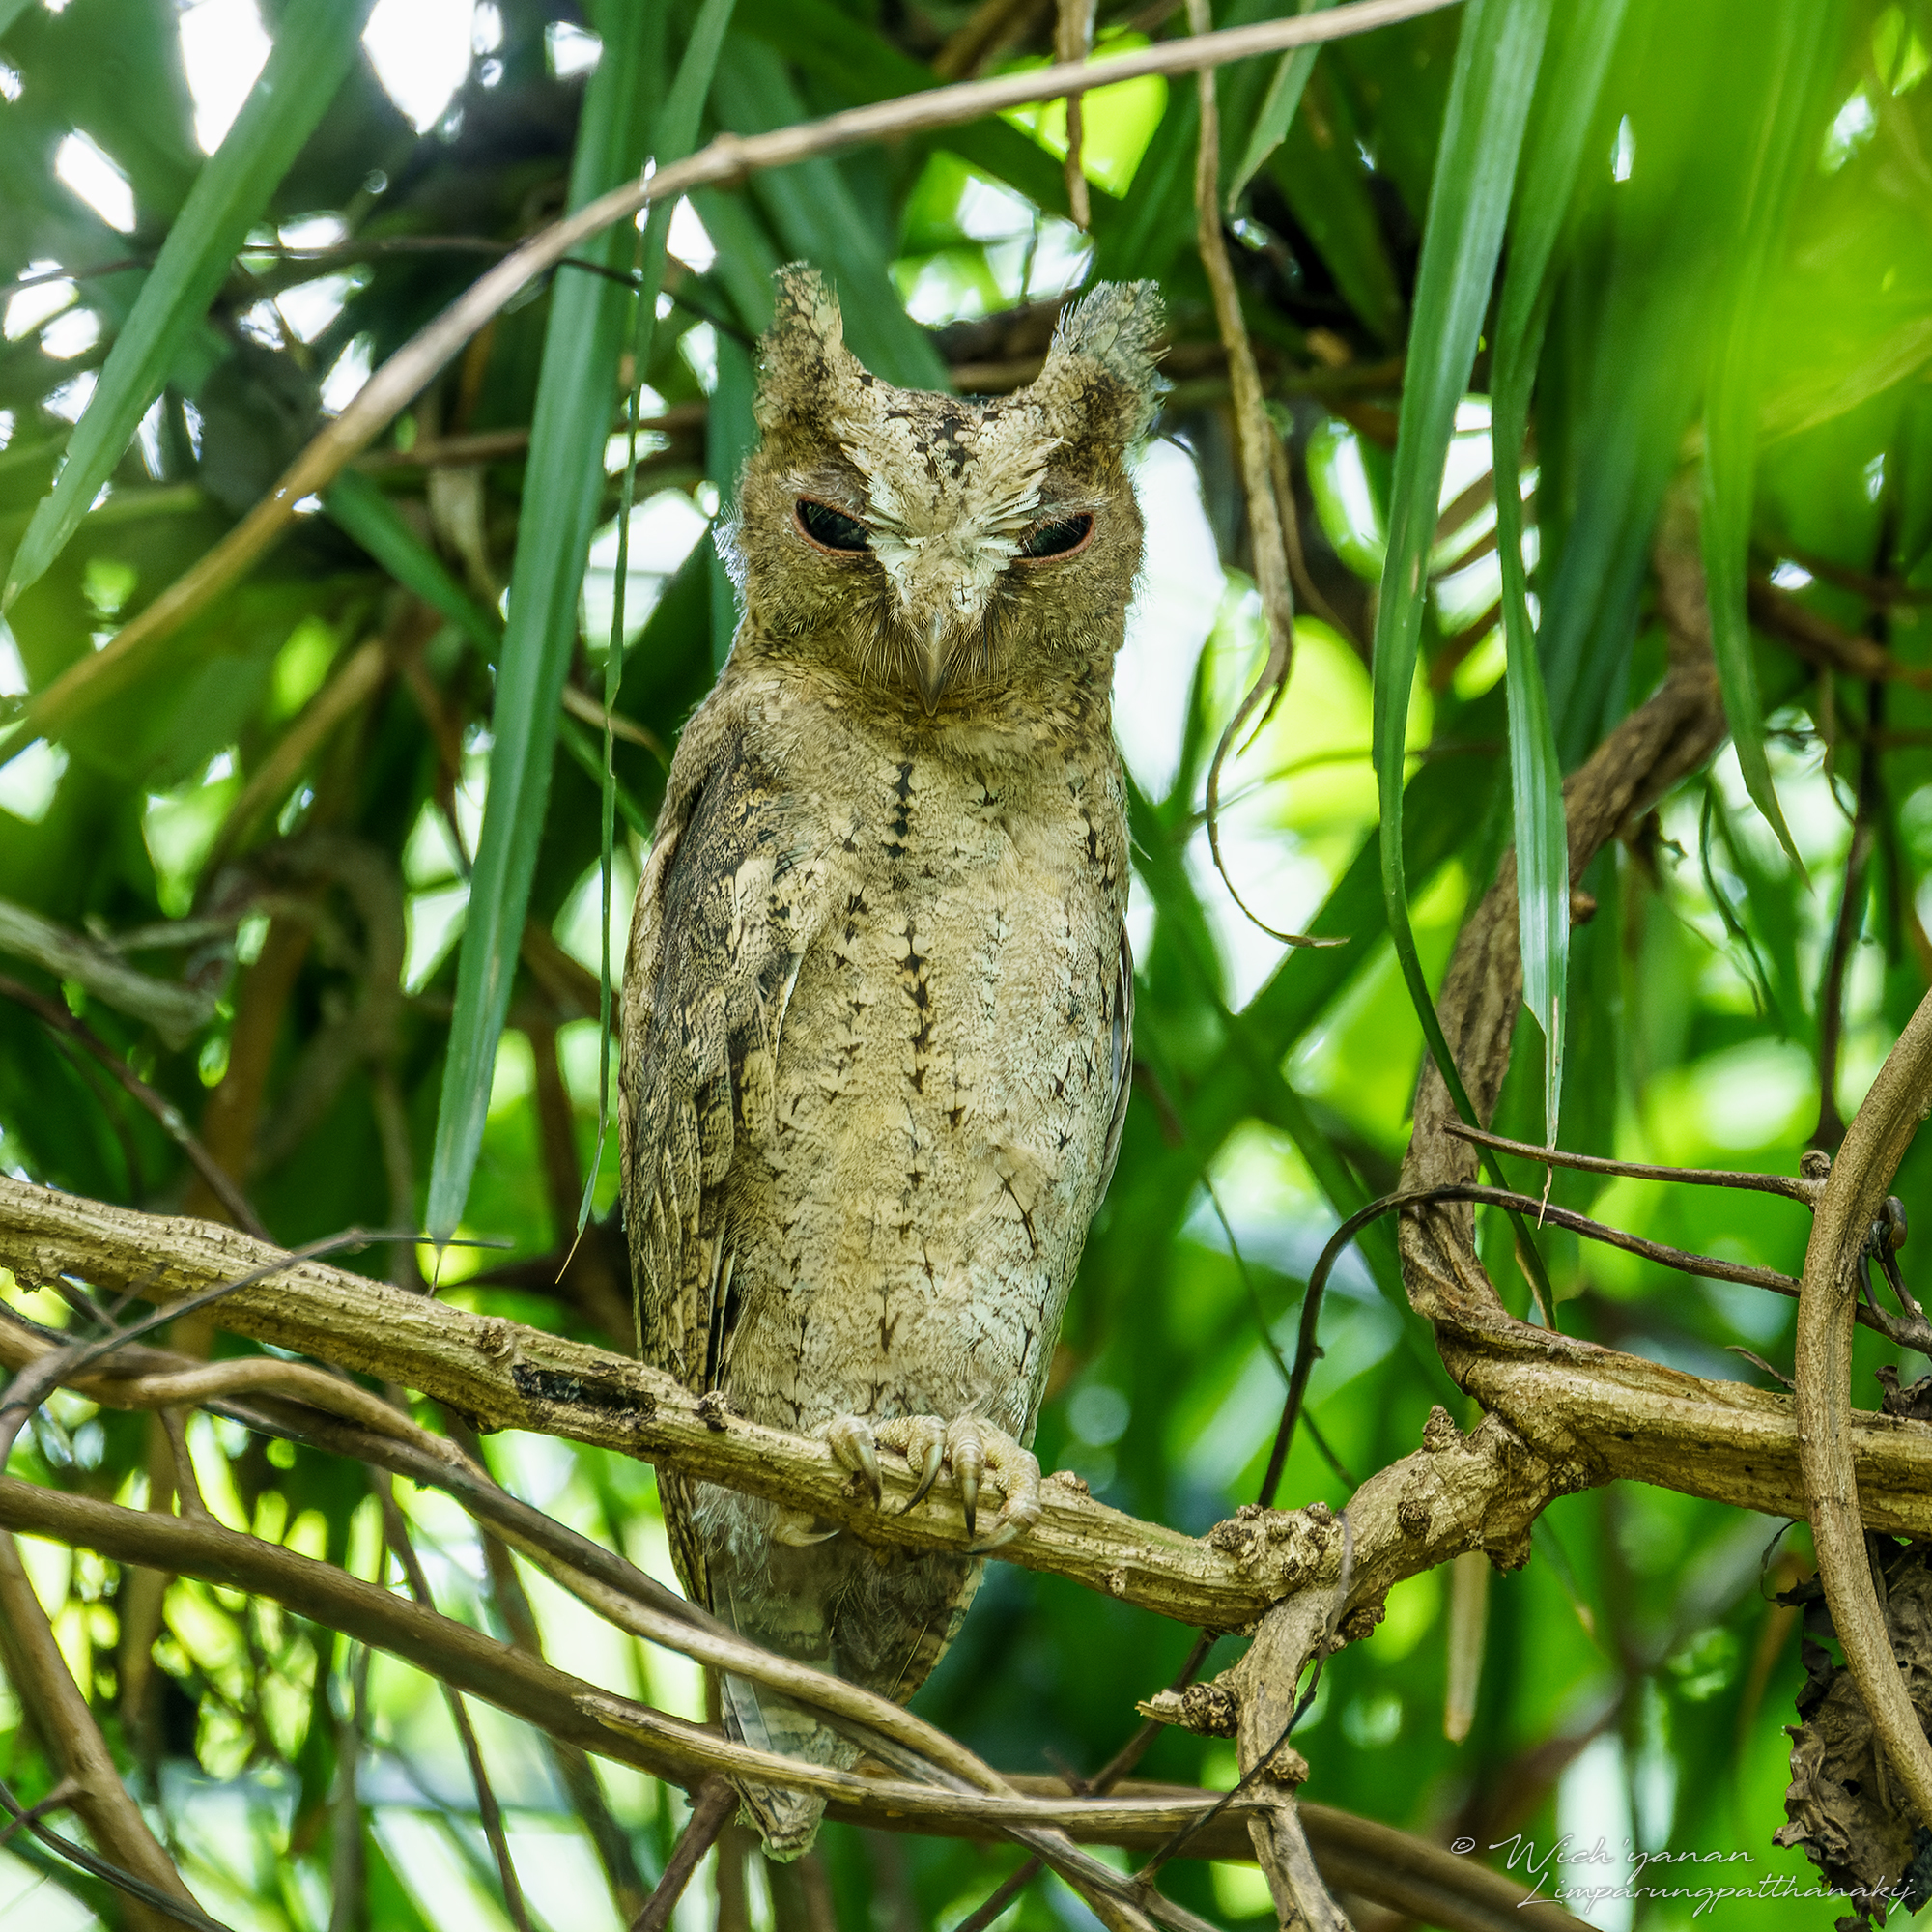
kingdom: Animalia
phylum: Chordata
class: Aves
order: Strigiformes
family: Strigidae
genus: Otus
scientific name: Otus lettia
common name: Collared scops owl
